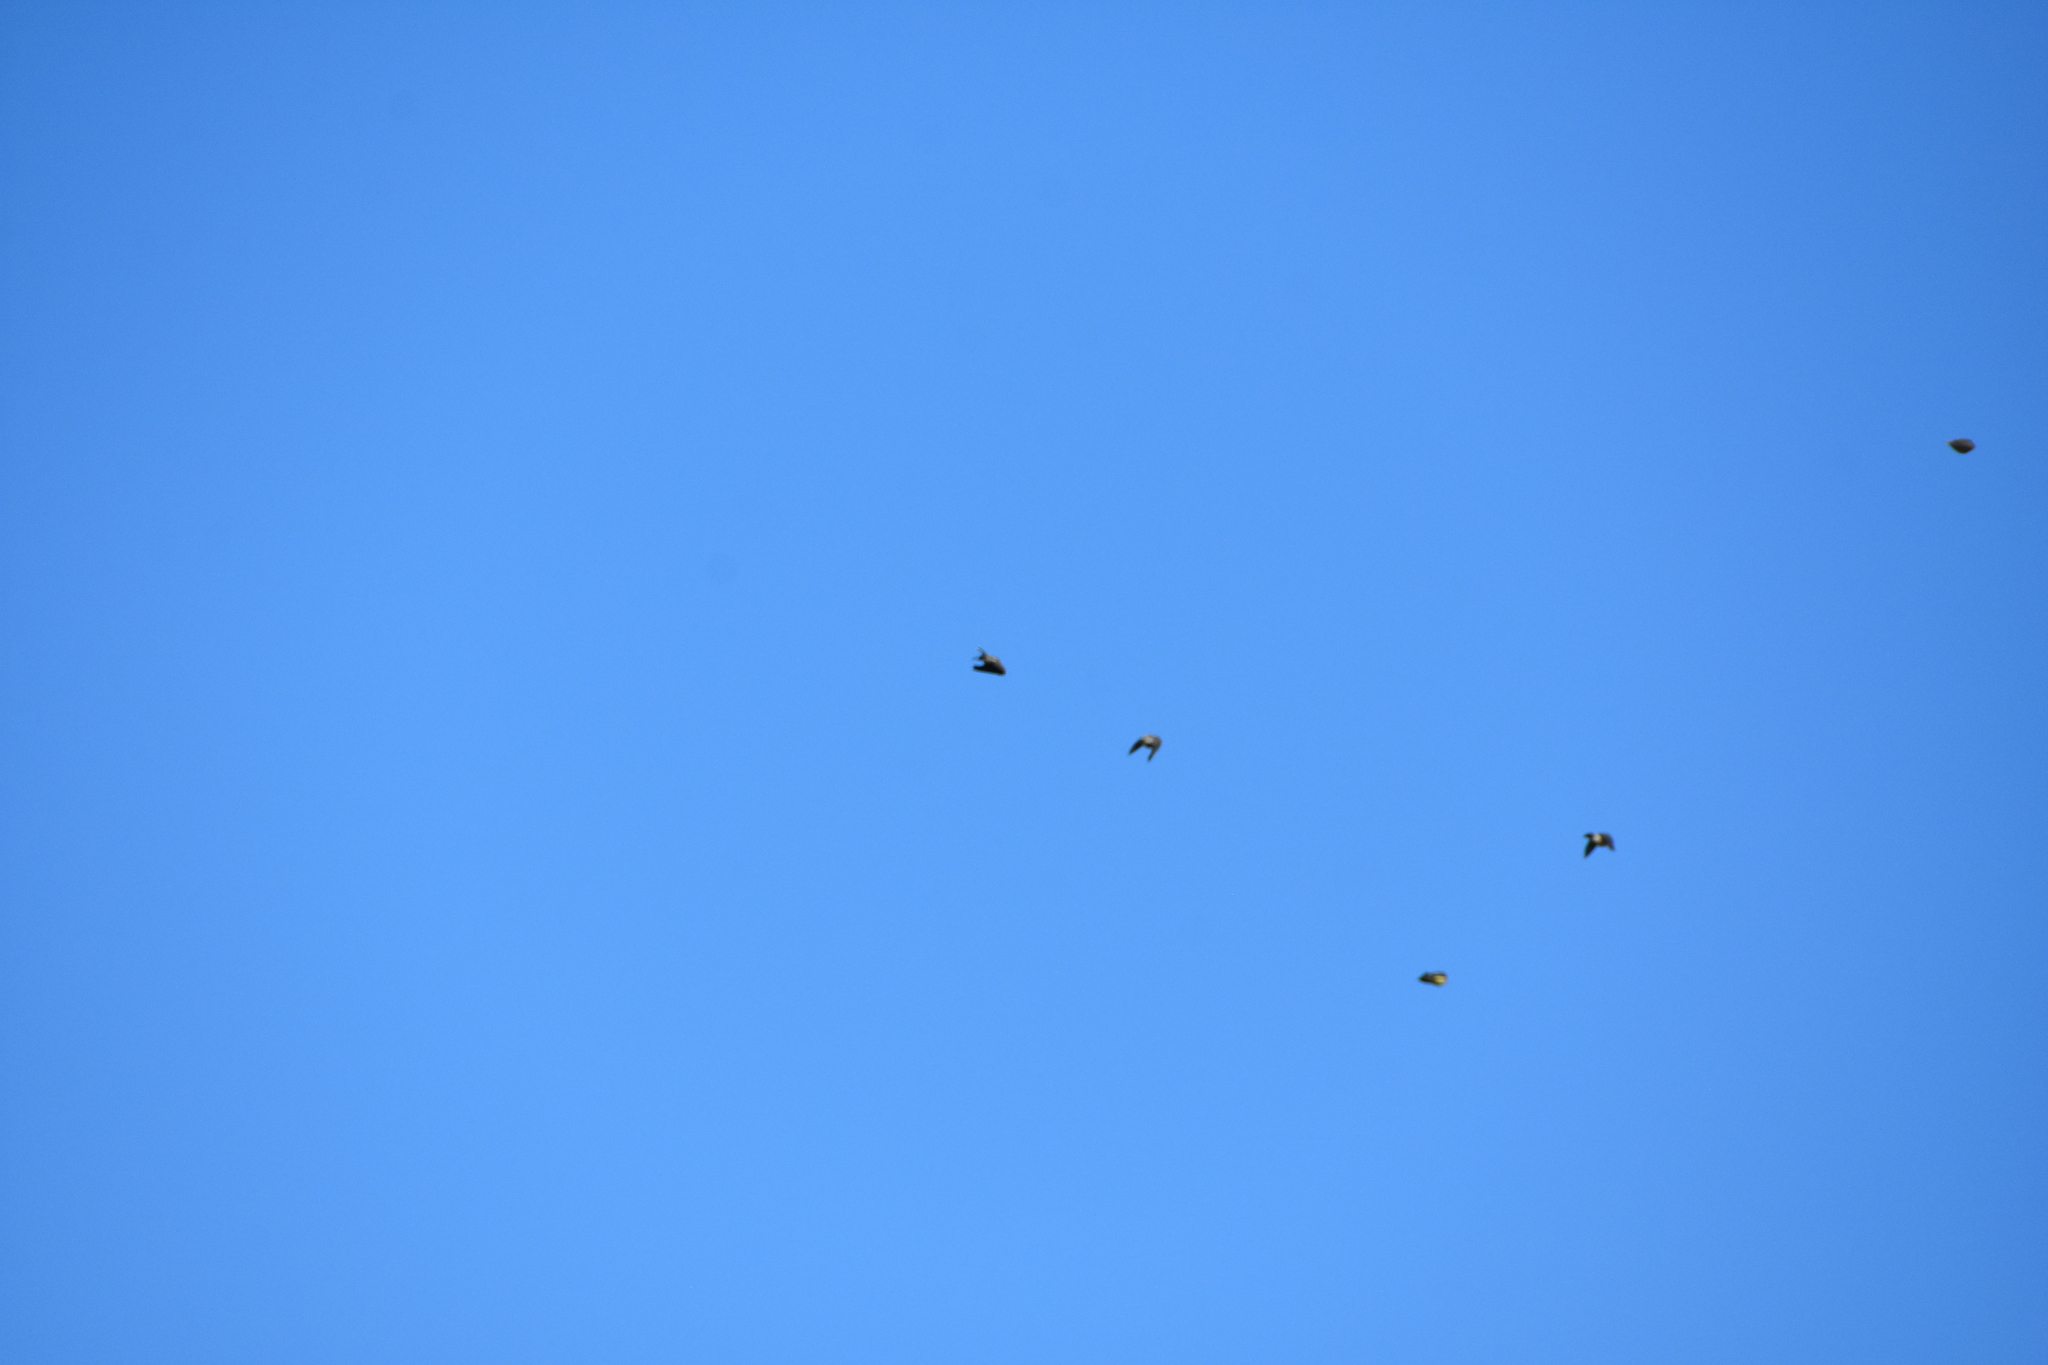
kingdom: Animalia
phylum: Chordata
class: Aves
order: Passeriformes
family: Bombycillidae
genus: Bombycilla
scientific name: Bombycilla cedrorum
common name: Cedar waxwing
